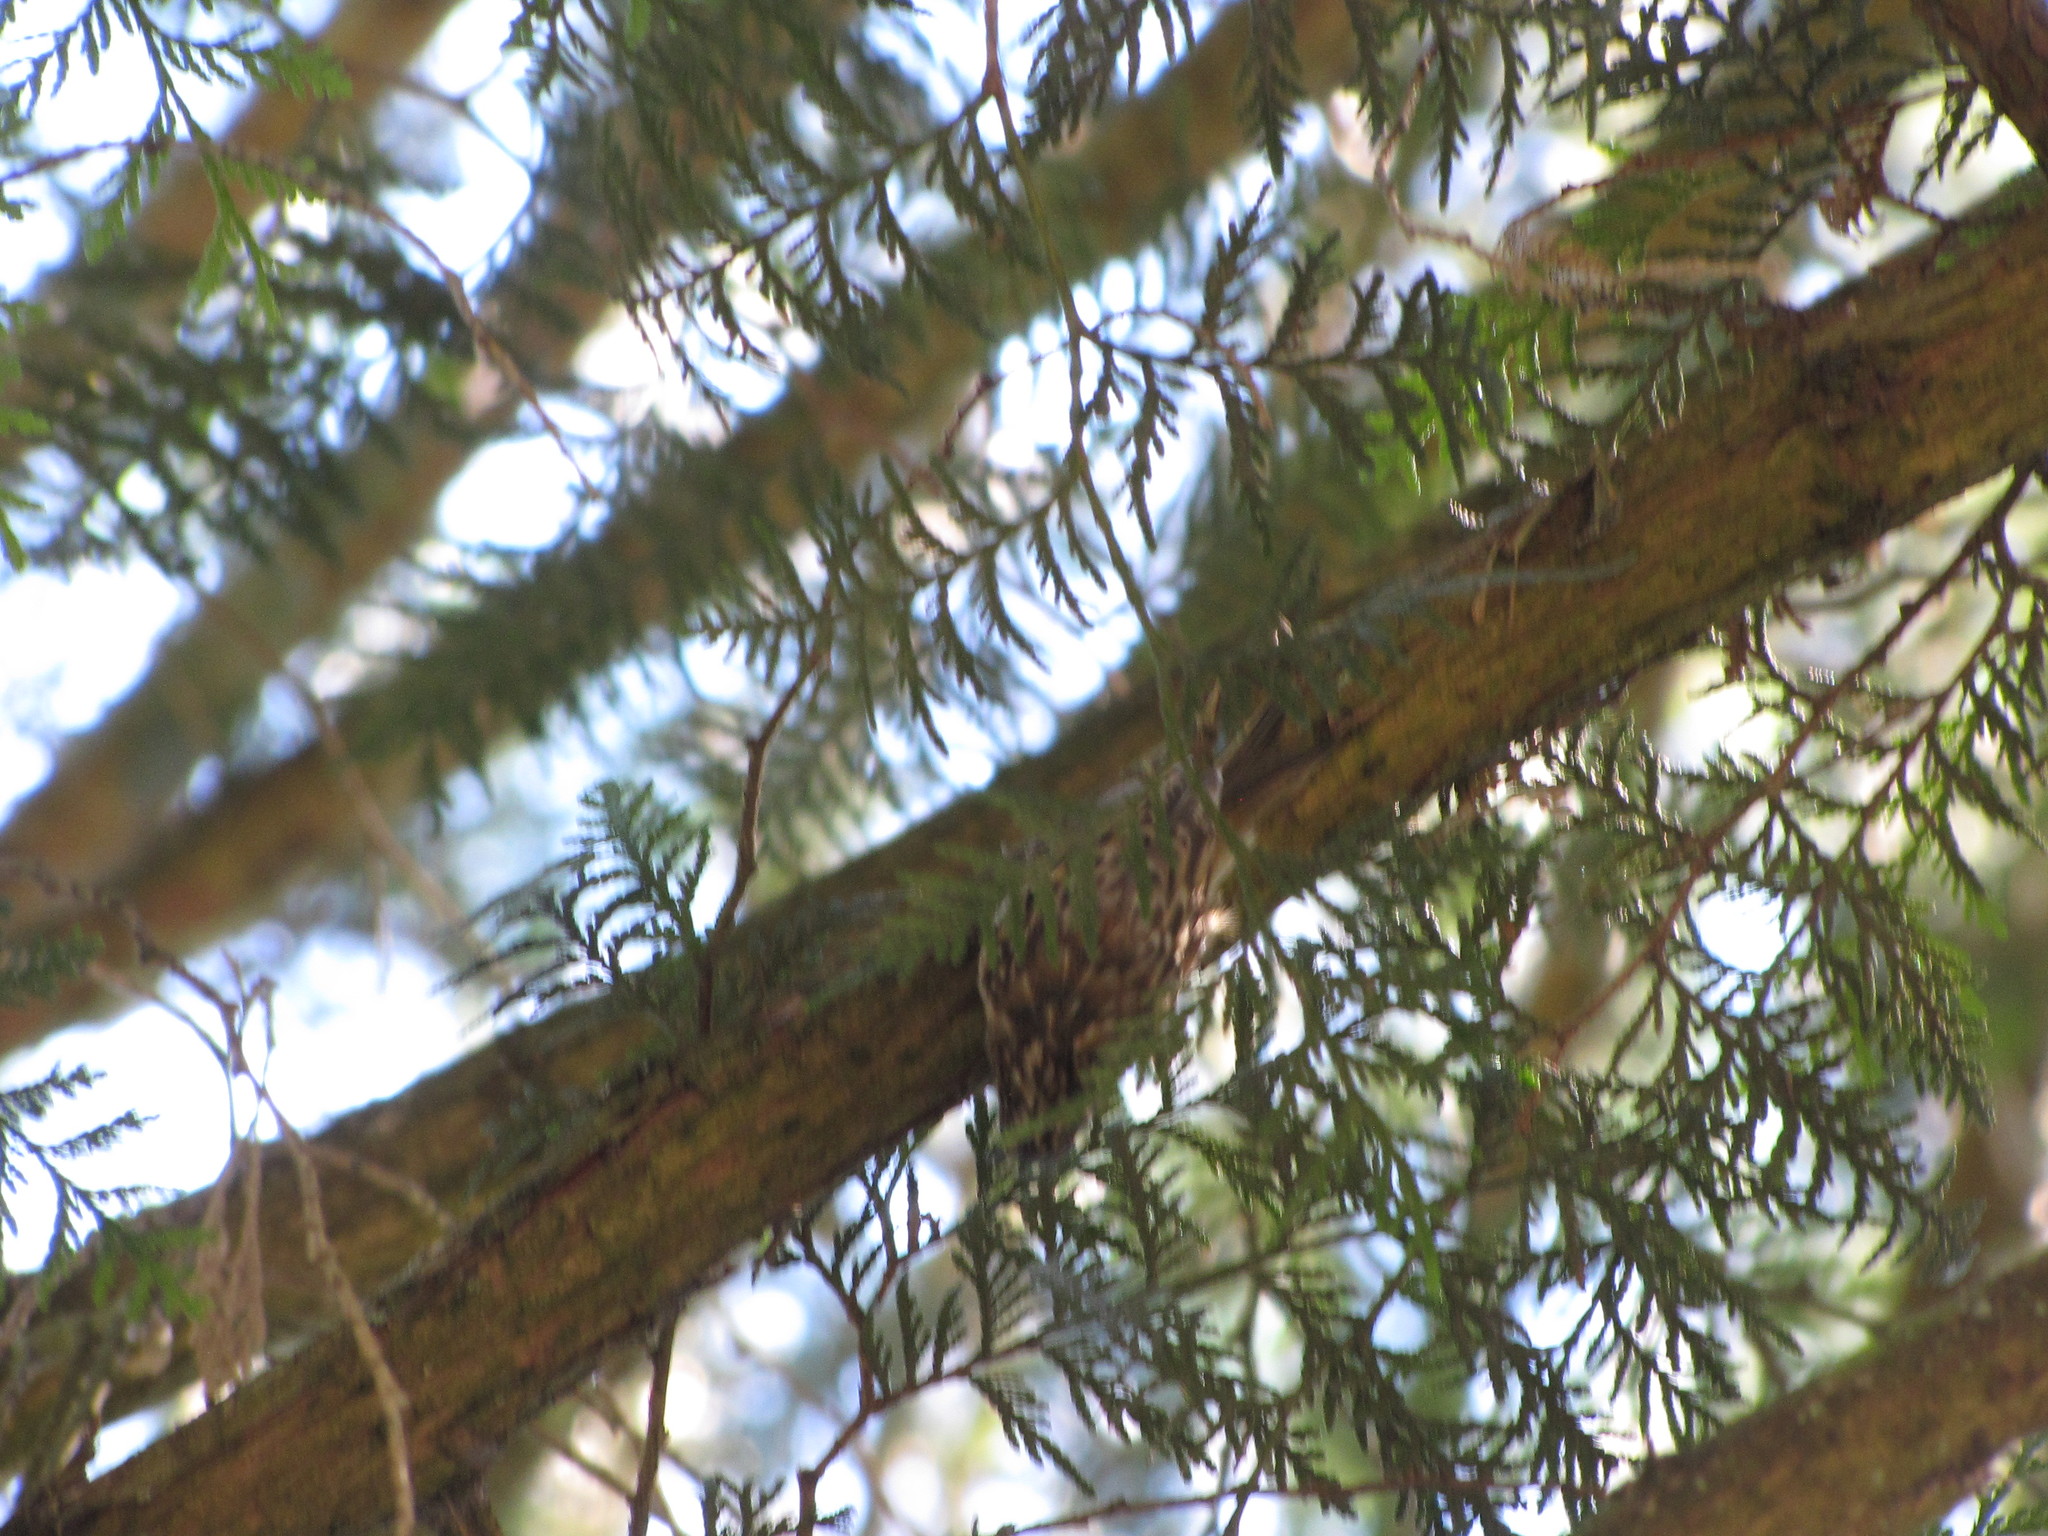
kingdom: Animalia
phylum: Chordata
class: Aves
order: Passeriformes
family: Certhiidae
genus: Certhia
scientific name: Certhia americana
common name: Brown creeper
